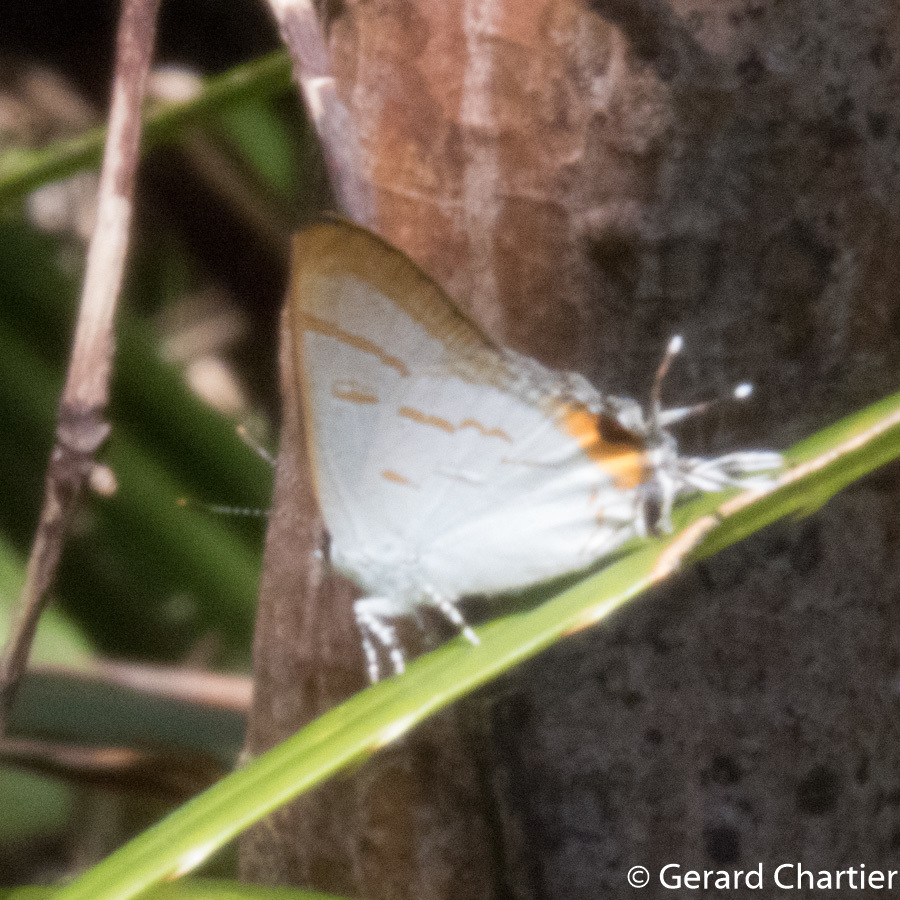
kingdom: Animalia
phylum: Arthropoda
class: Insecta
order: Lepidoptera
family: Lycaenidae
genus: Hypolycaena
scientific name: Hypolycaena thecloides
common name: Dark tit
